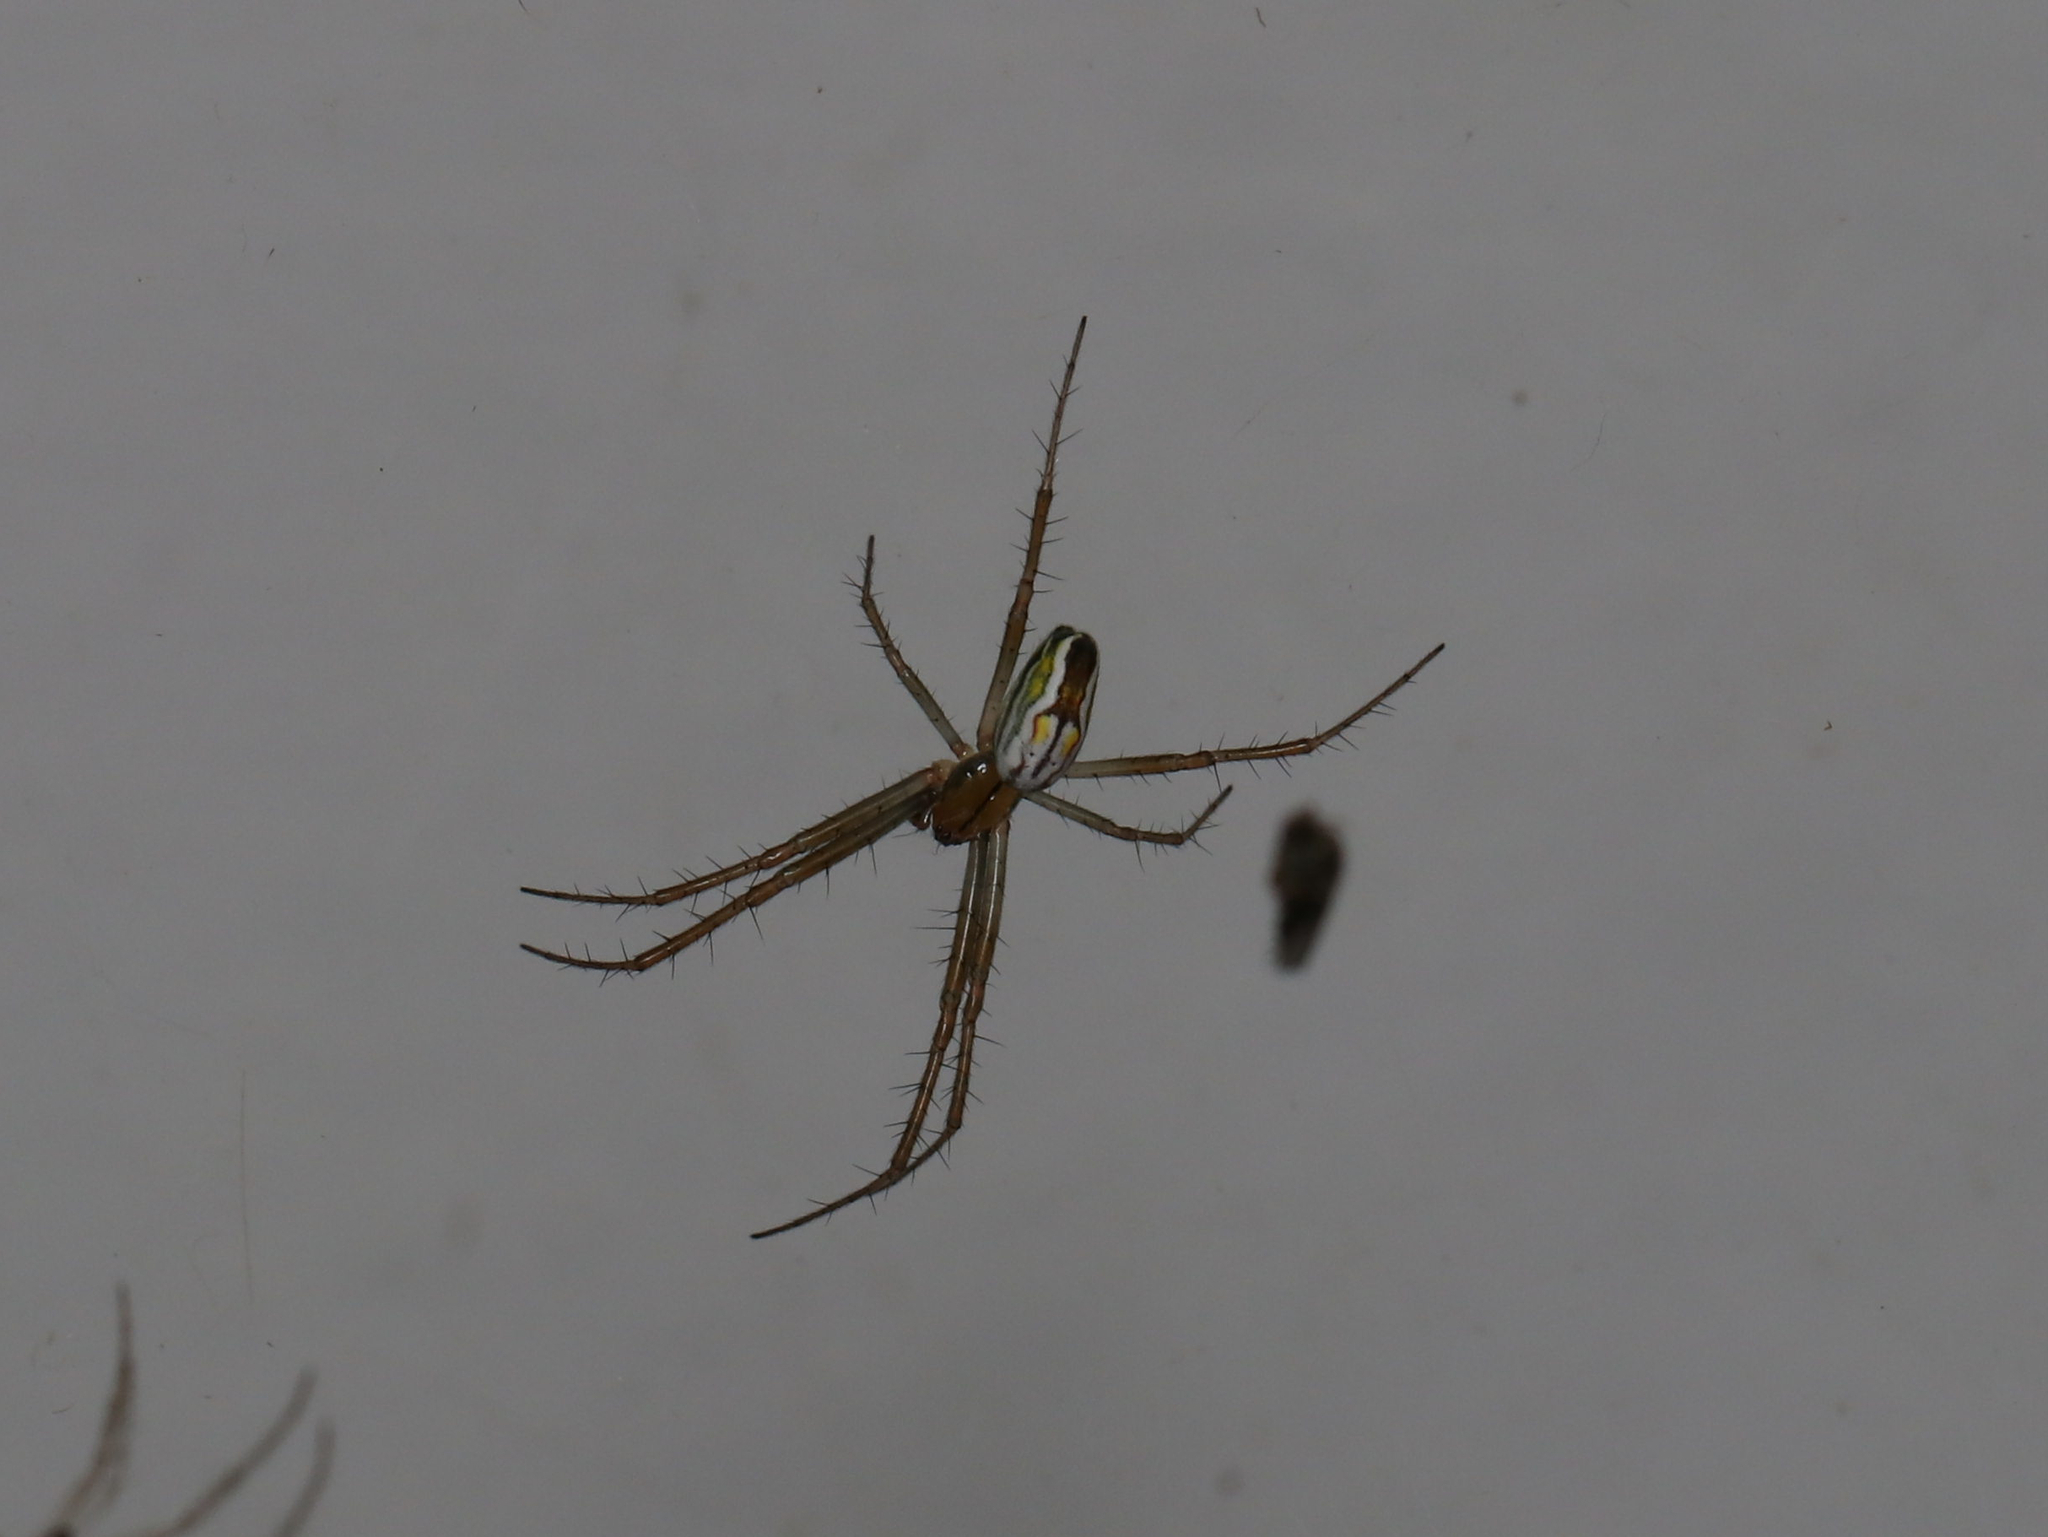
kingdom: Animalia
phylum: Arthropoda
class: Arachnida
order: Araneae
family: Araneidae
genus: Mecynogea
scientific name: Mecynogea lemniscata
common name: Orb weavers
